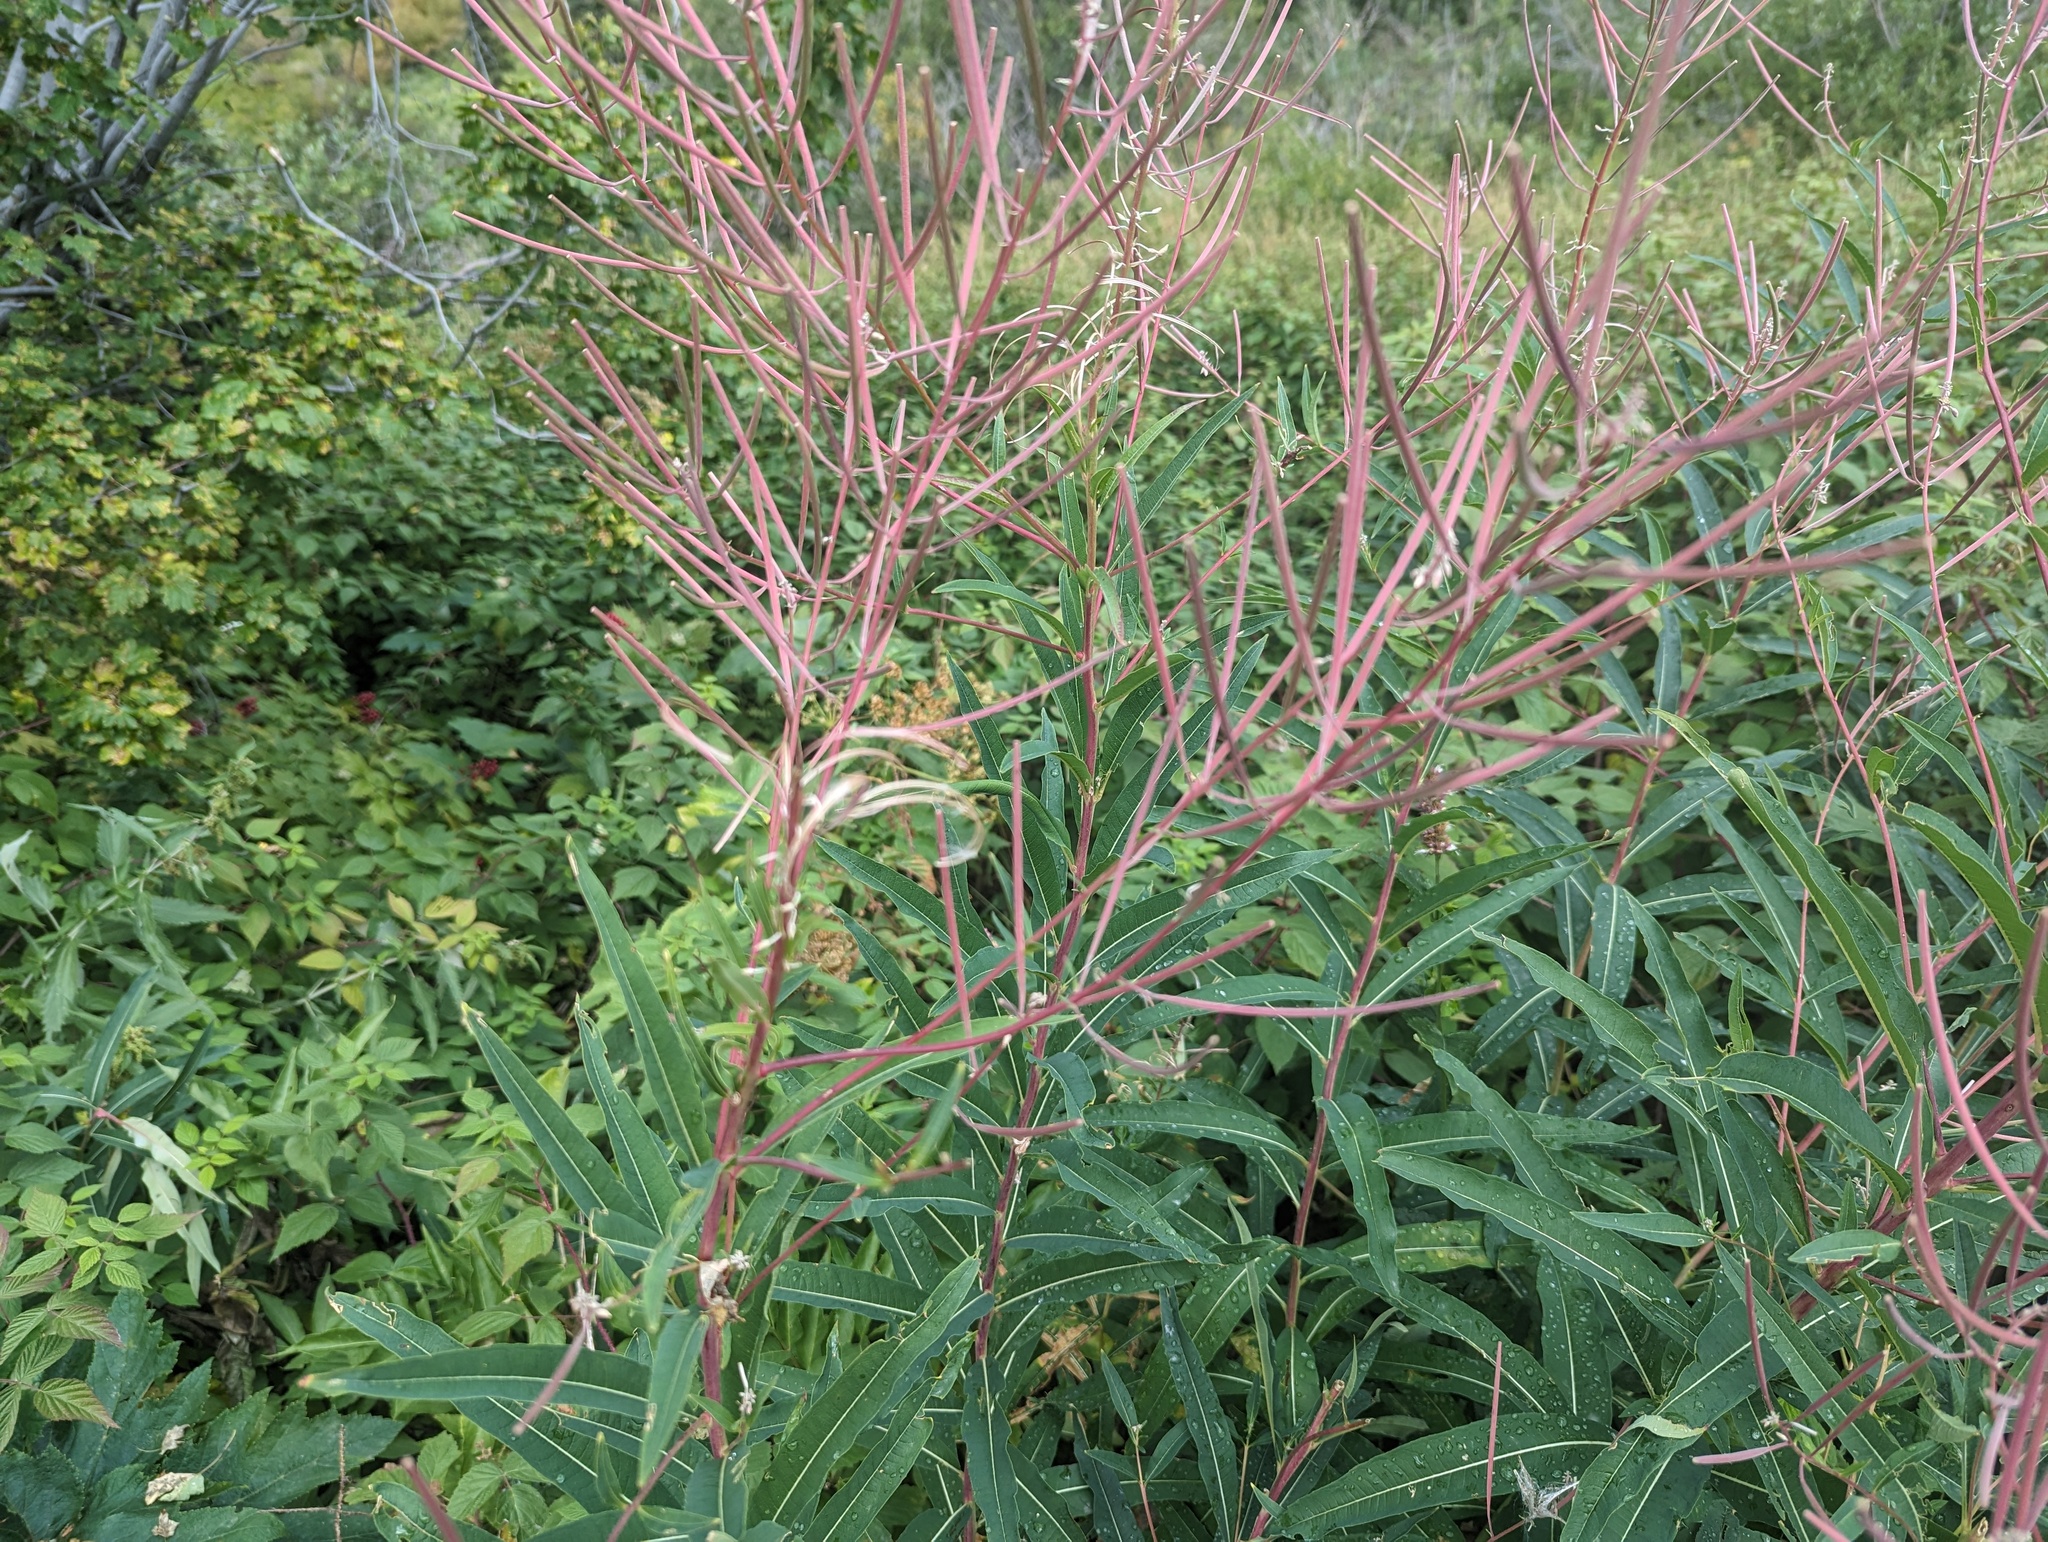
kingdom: Plantae
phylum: Tracheophyta
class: Magnoliopsida
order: Myrtales
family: Onagraceae
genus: Chamaenerion
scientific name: Chamaenerion angustifolium
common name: Fireweed
